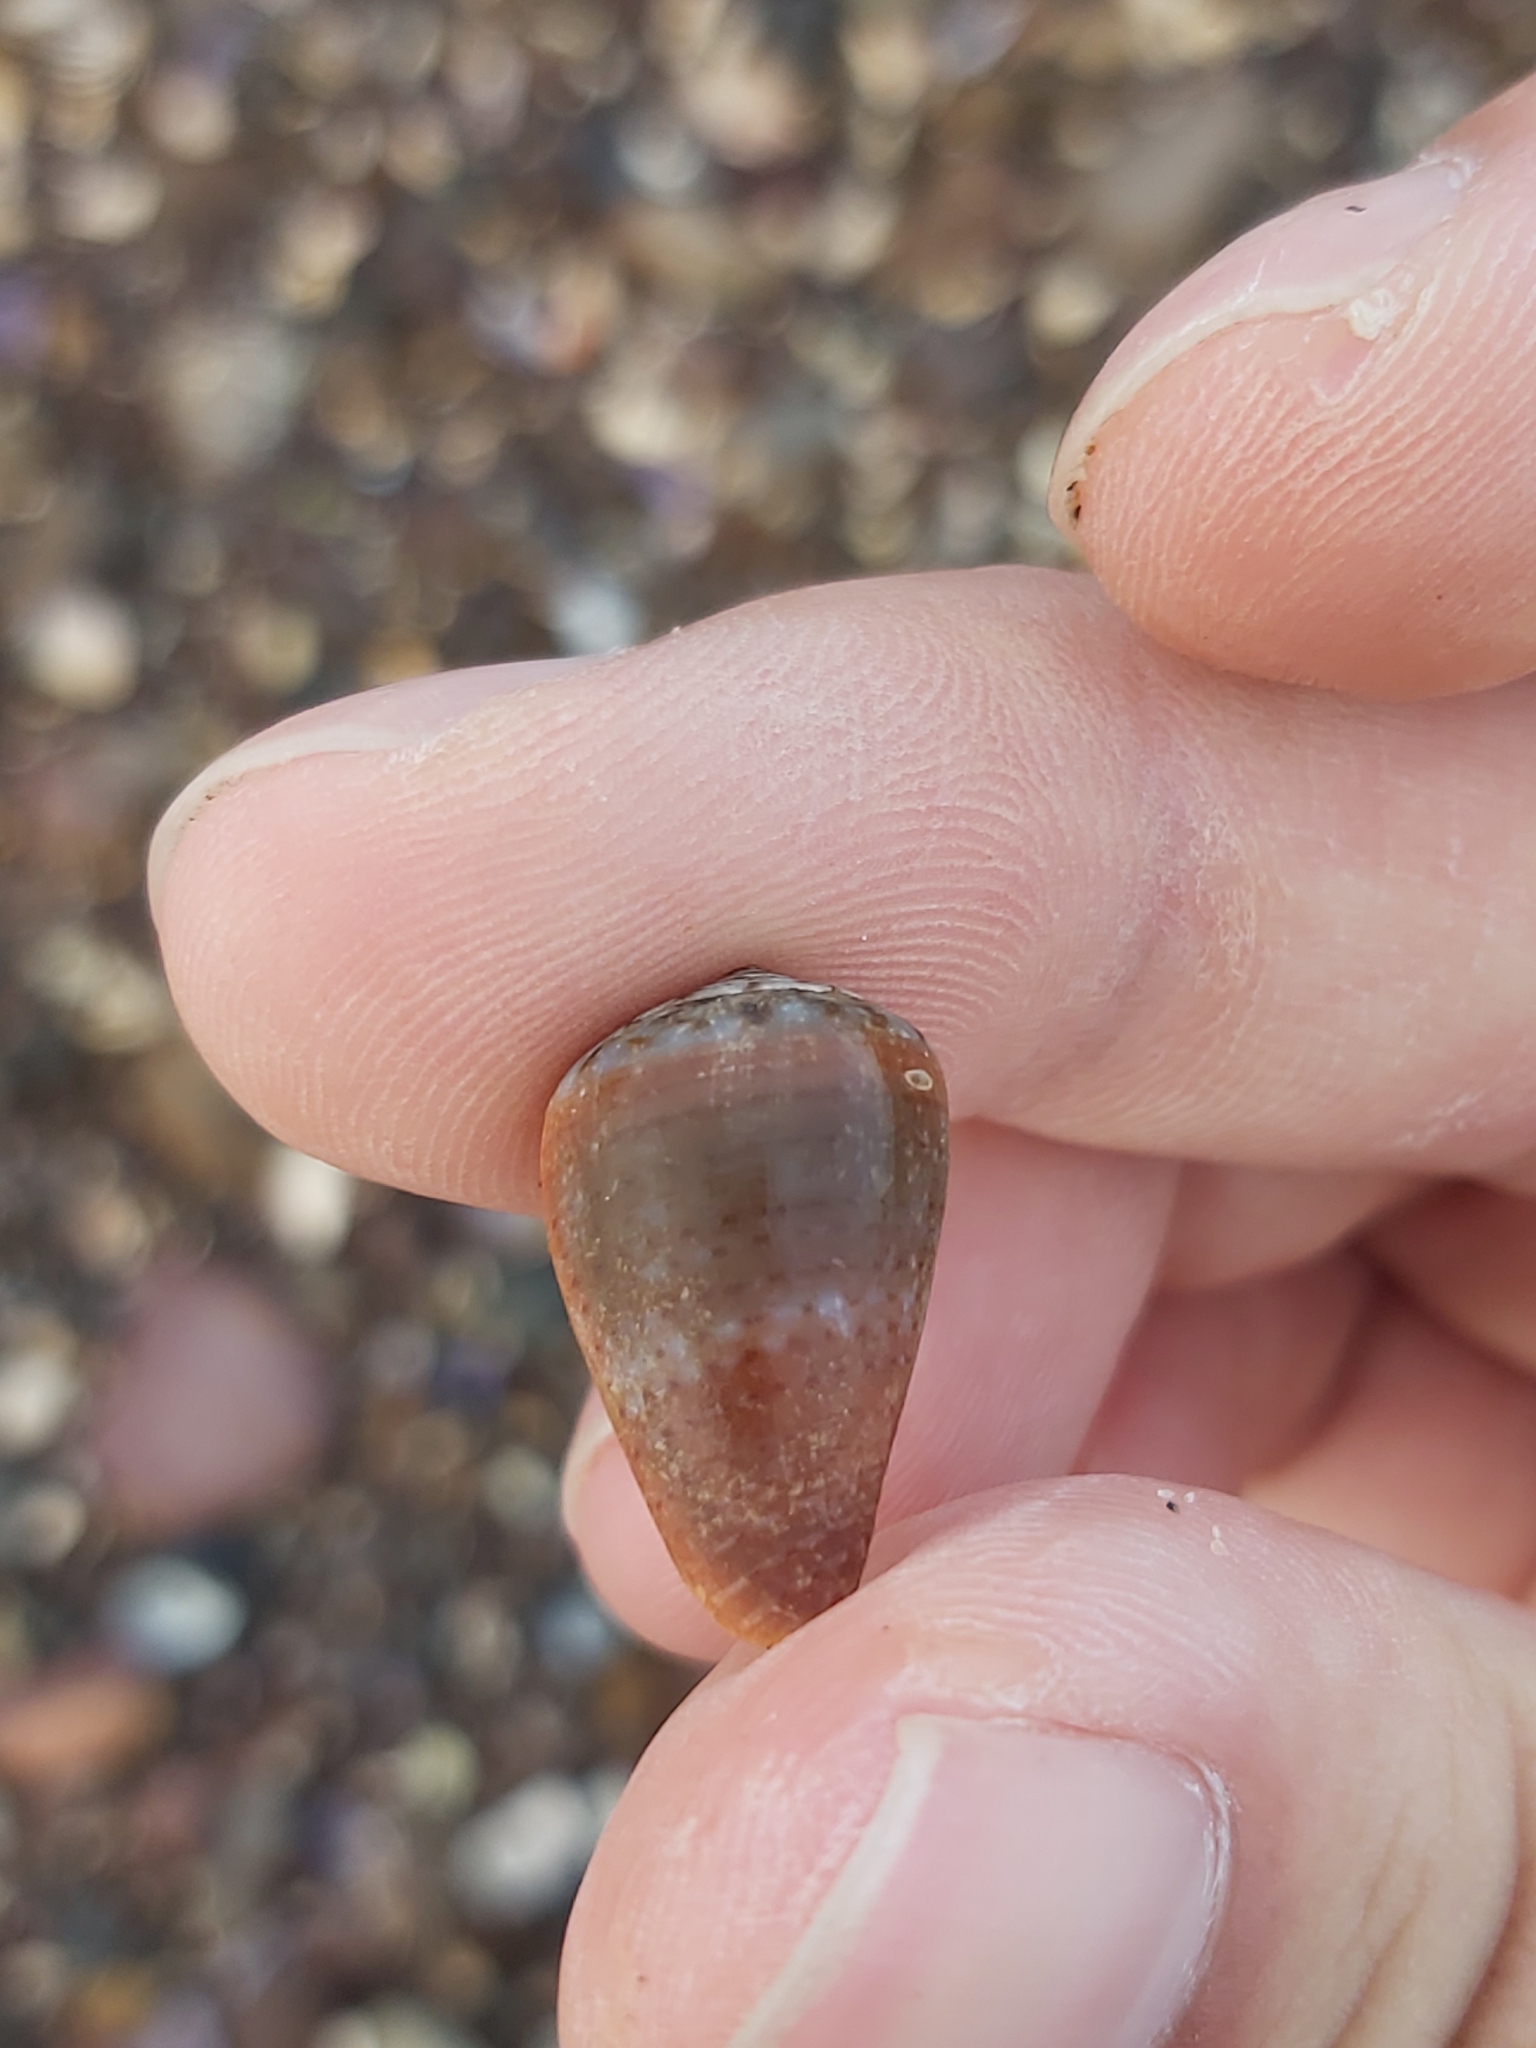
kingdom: Animalia
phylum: Mollusca
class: Gastropoda
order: Neogastropoda
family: Conidae
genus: Conus
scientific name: Conus aplustre
